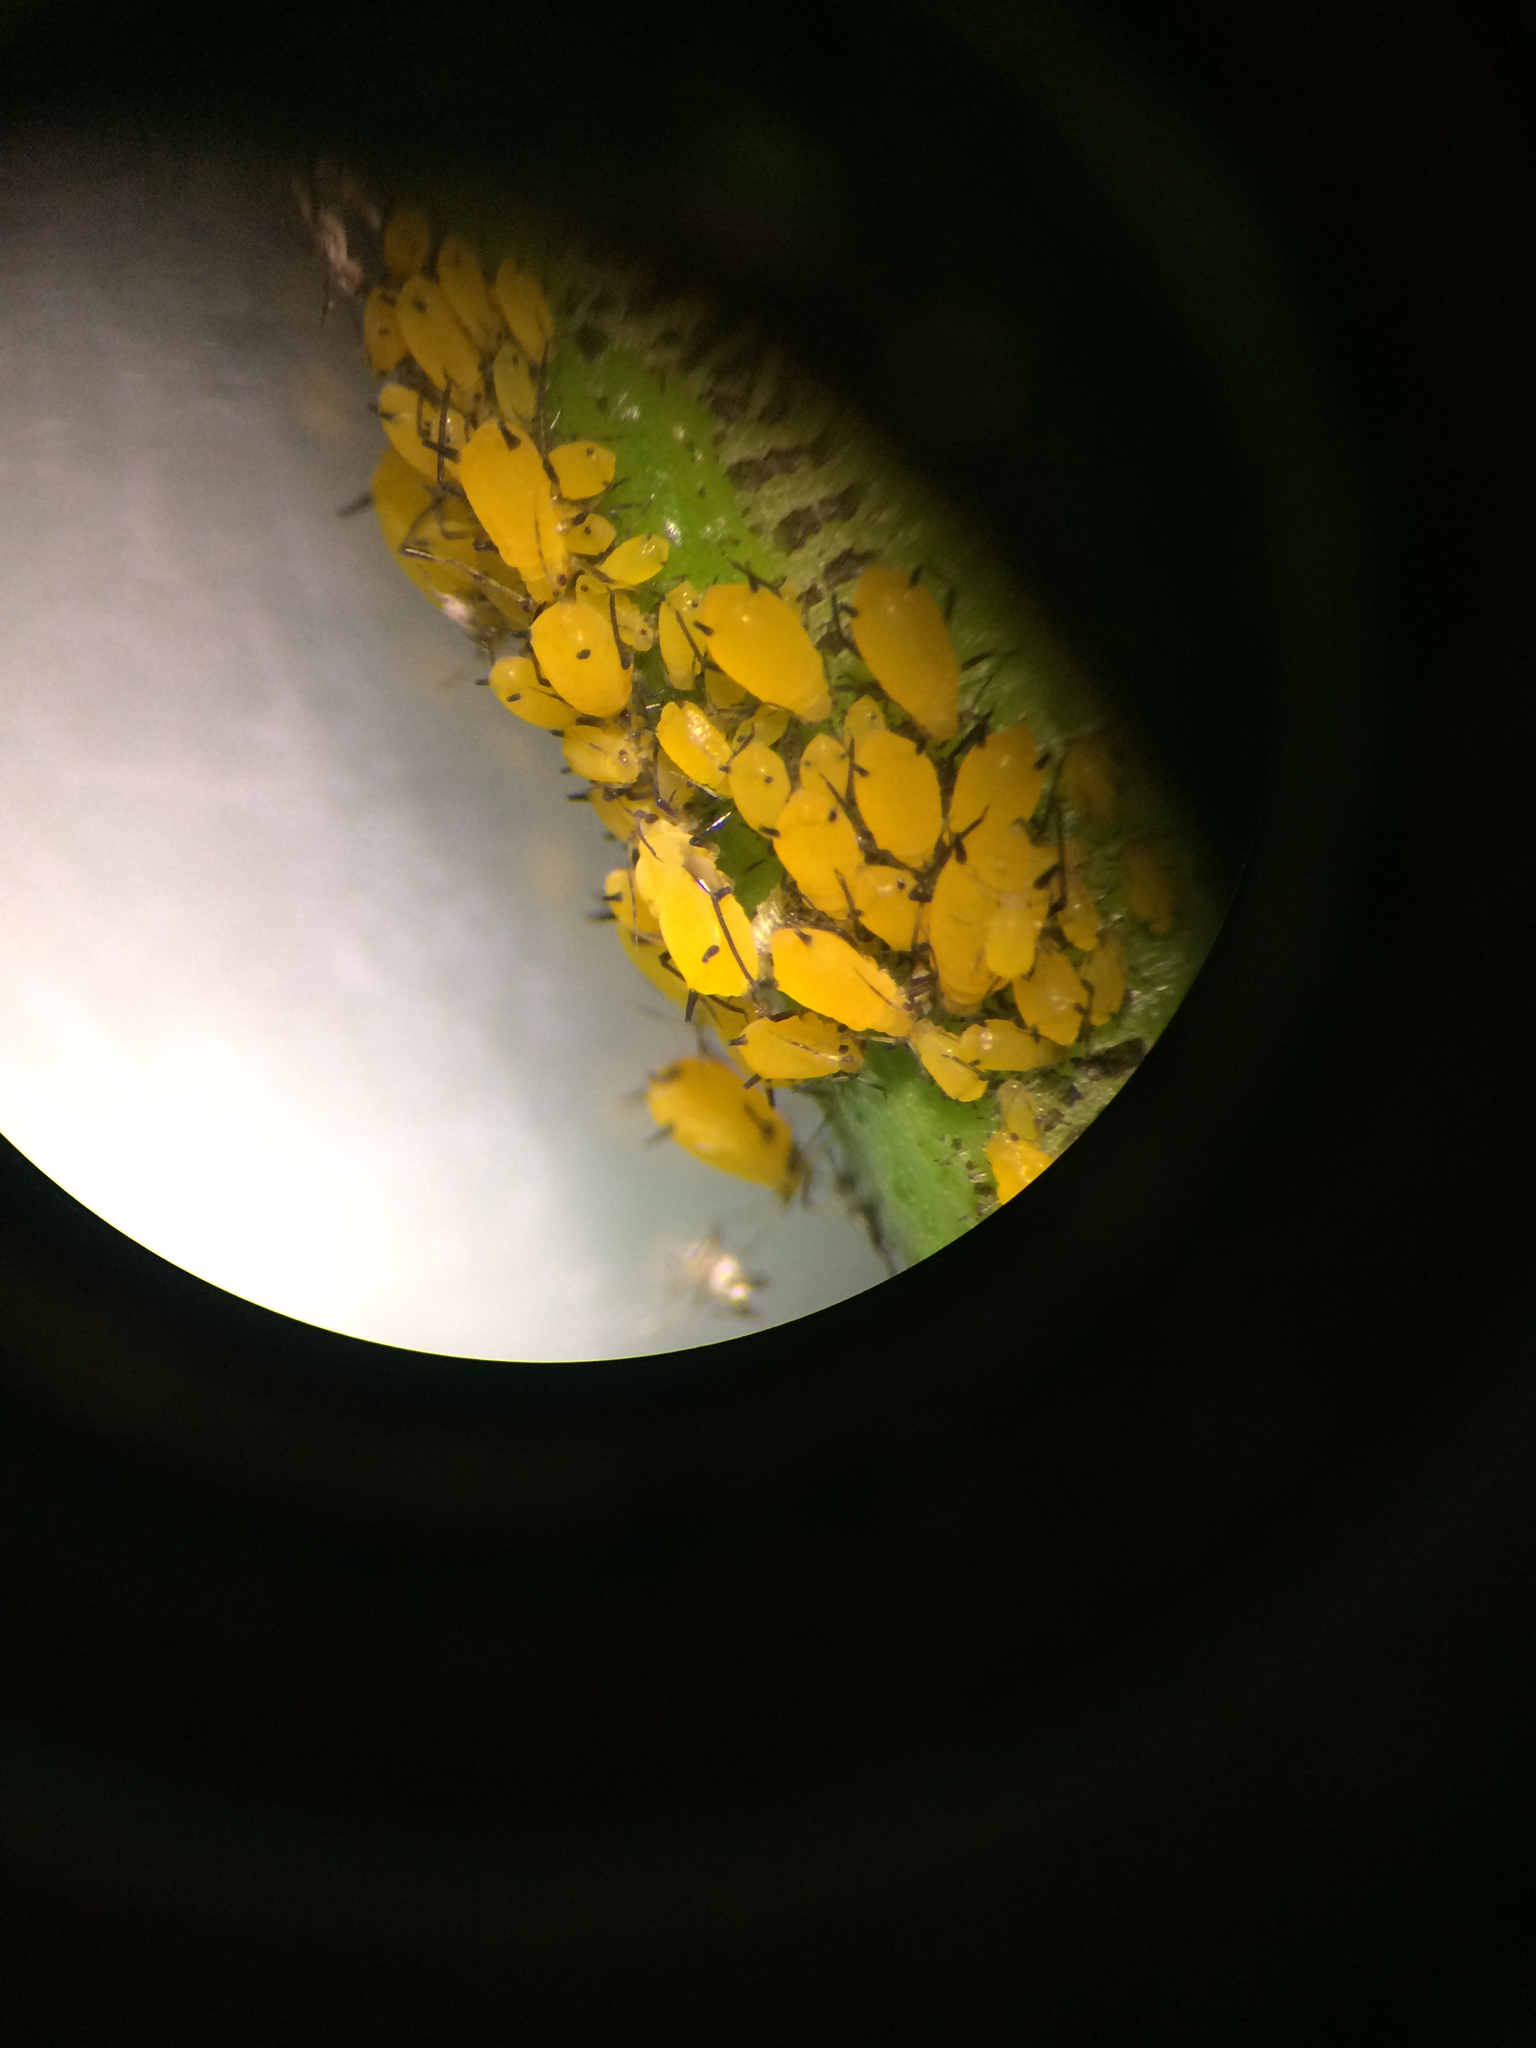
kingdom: Animalia
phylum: Arthropoda
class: Insecta
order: Hemiptera
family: Aphididae
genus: Aphis
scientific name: Aphis nerii
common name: Oleander aphid
